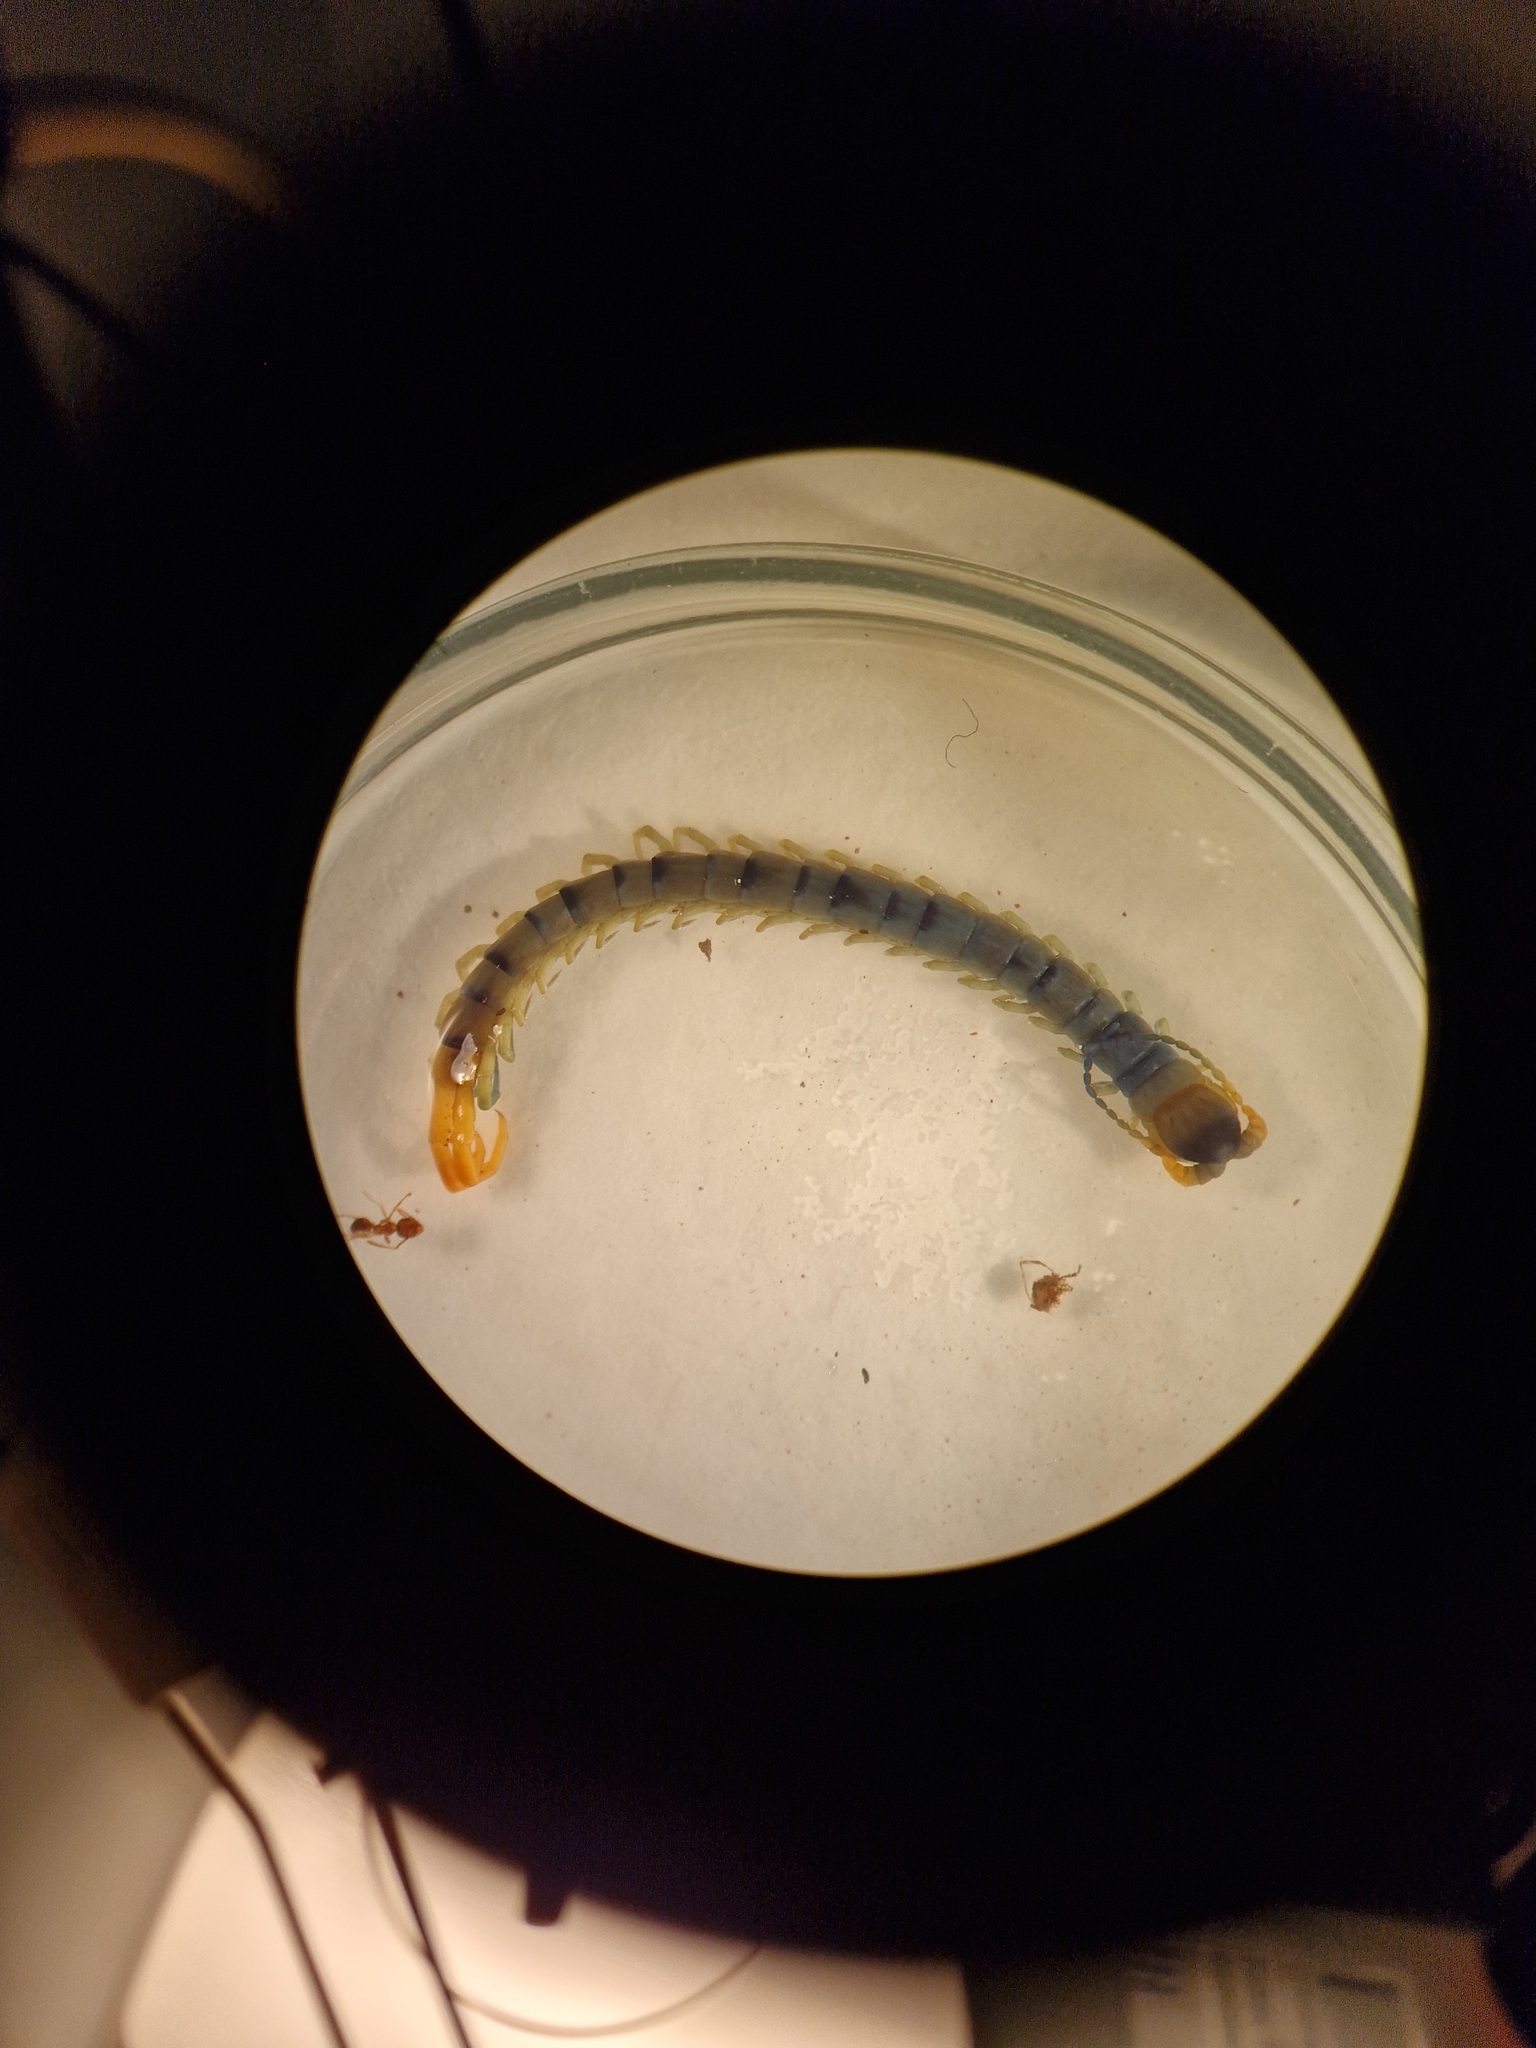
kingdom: Animalia
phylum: Arthropoda
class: Chilopoda
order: Scolopendromorpha
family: Scolopendridae
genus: Scolopendra
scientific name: Scolopendra cingulata
